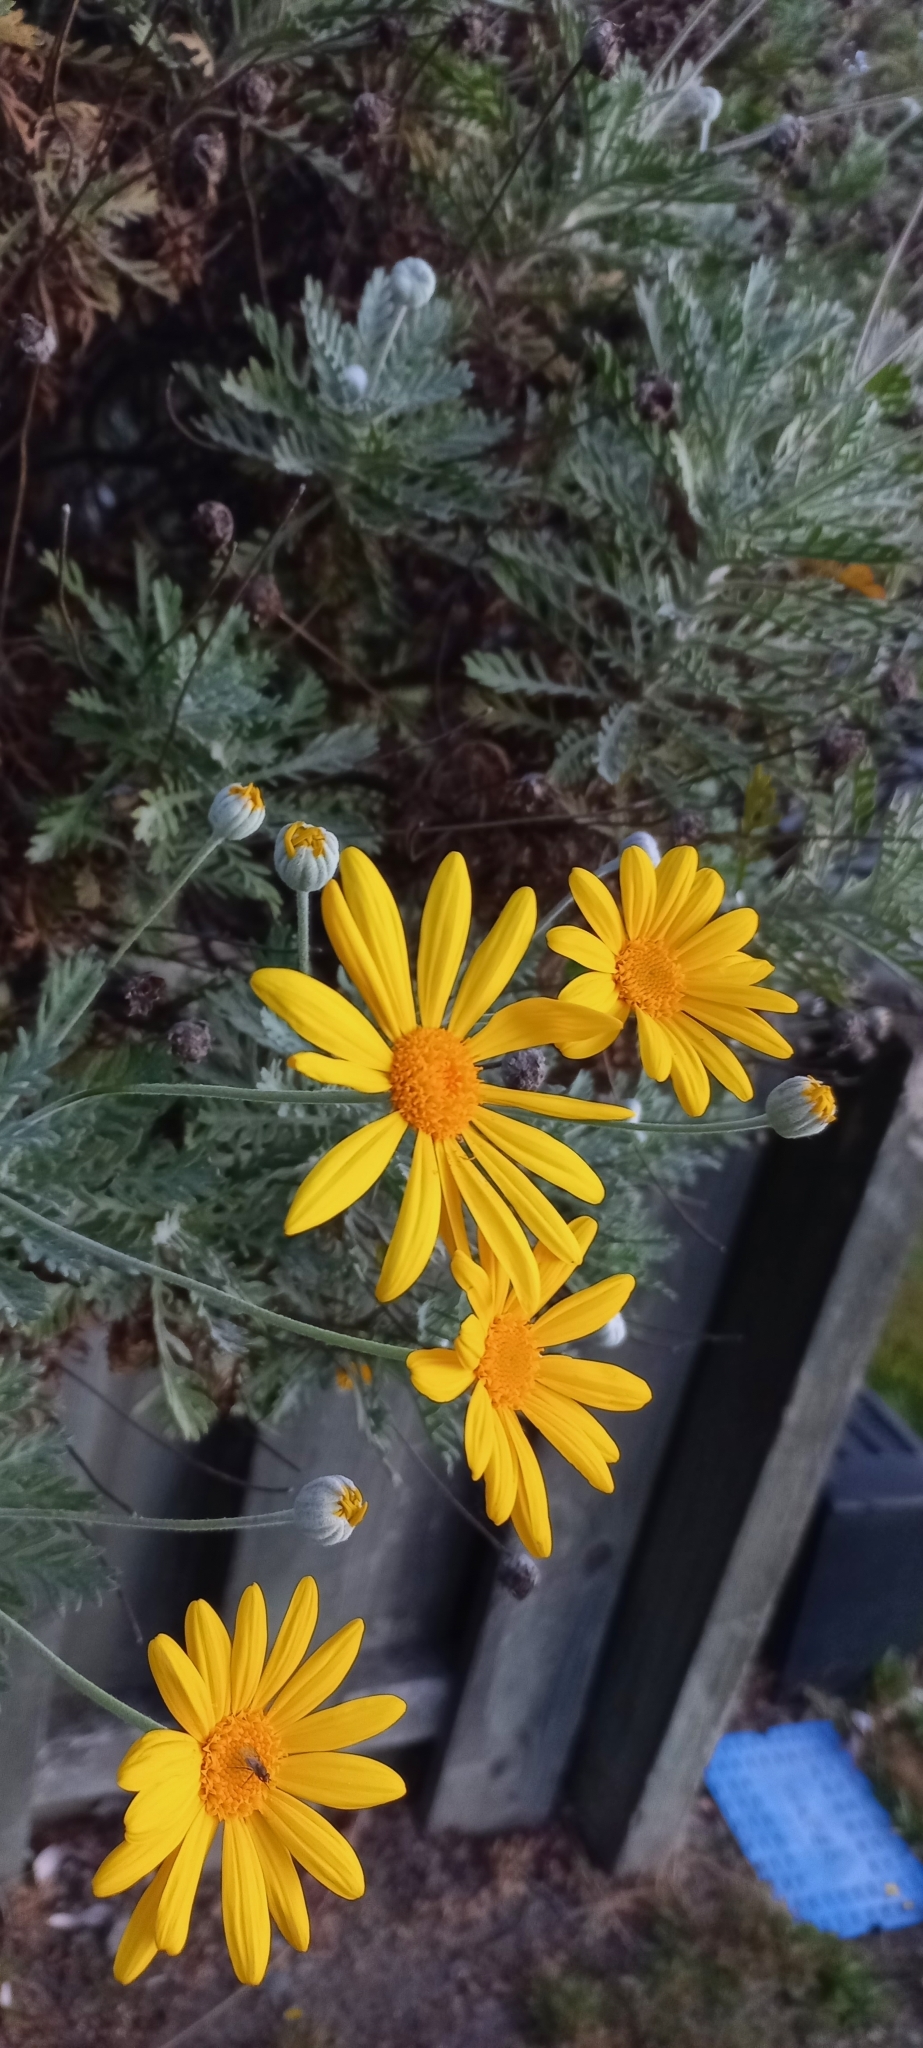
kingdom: Plantae
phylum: Tracheophyta
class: Magnoliopsida
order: Asterales
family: Asteraceae
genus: Euryops
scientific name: Euryops pectinatus
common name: Gray-leaf euryops
